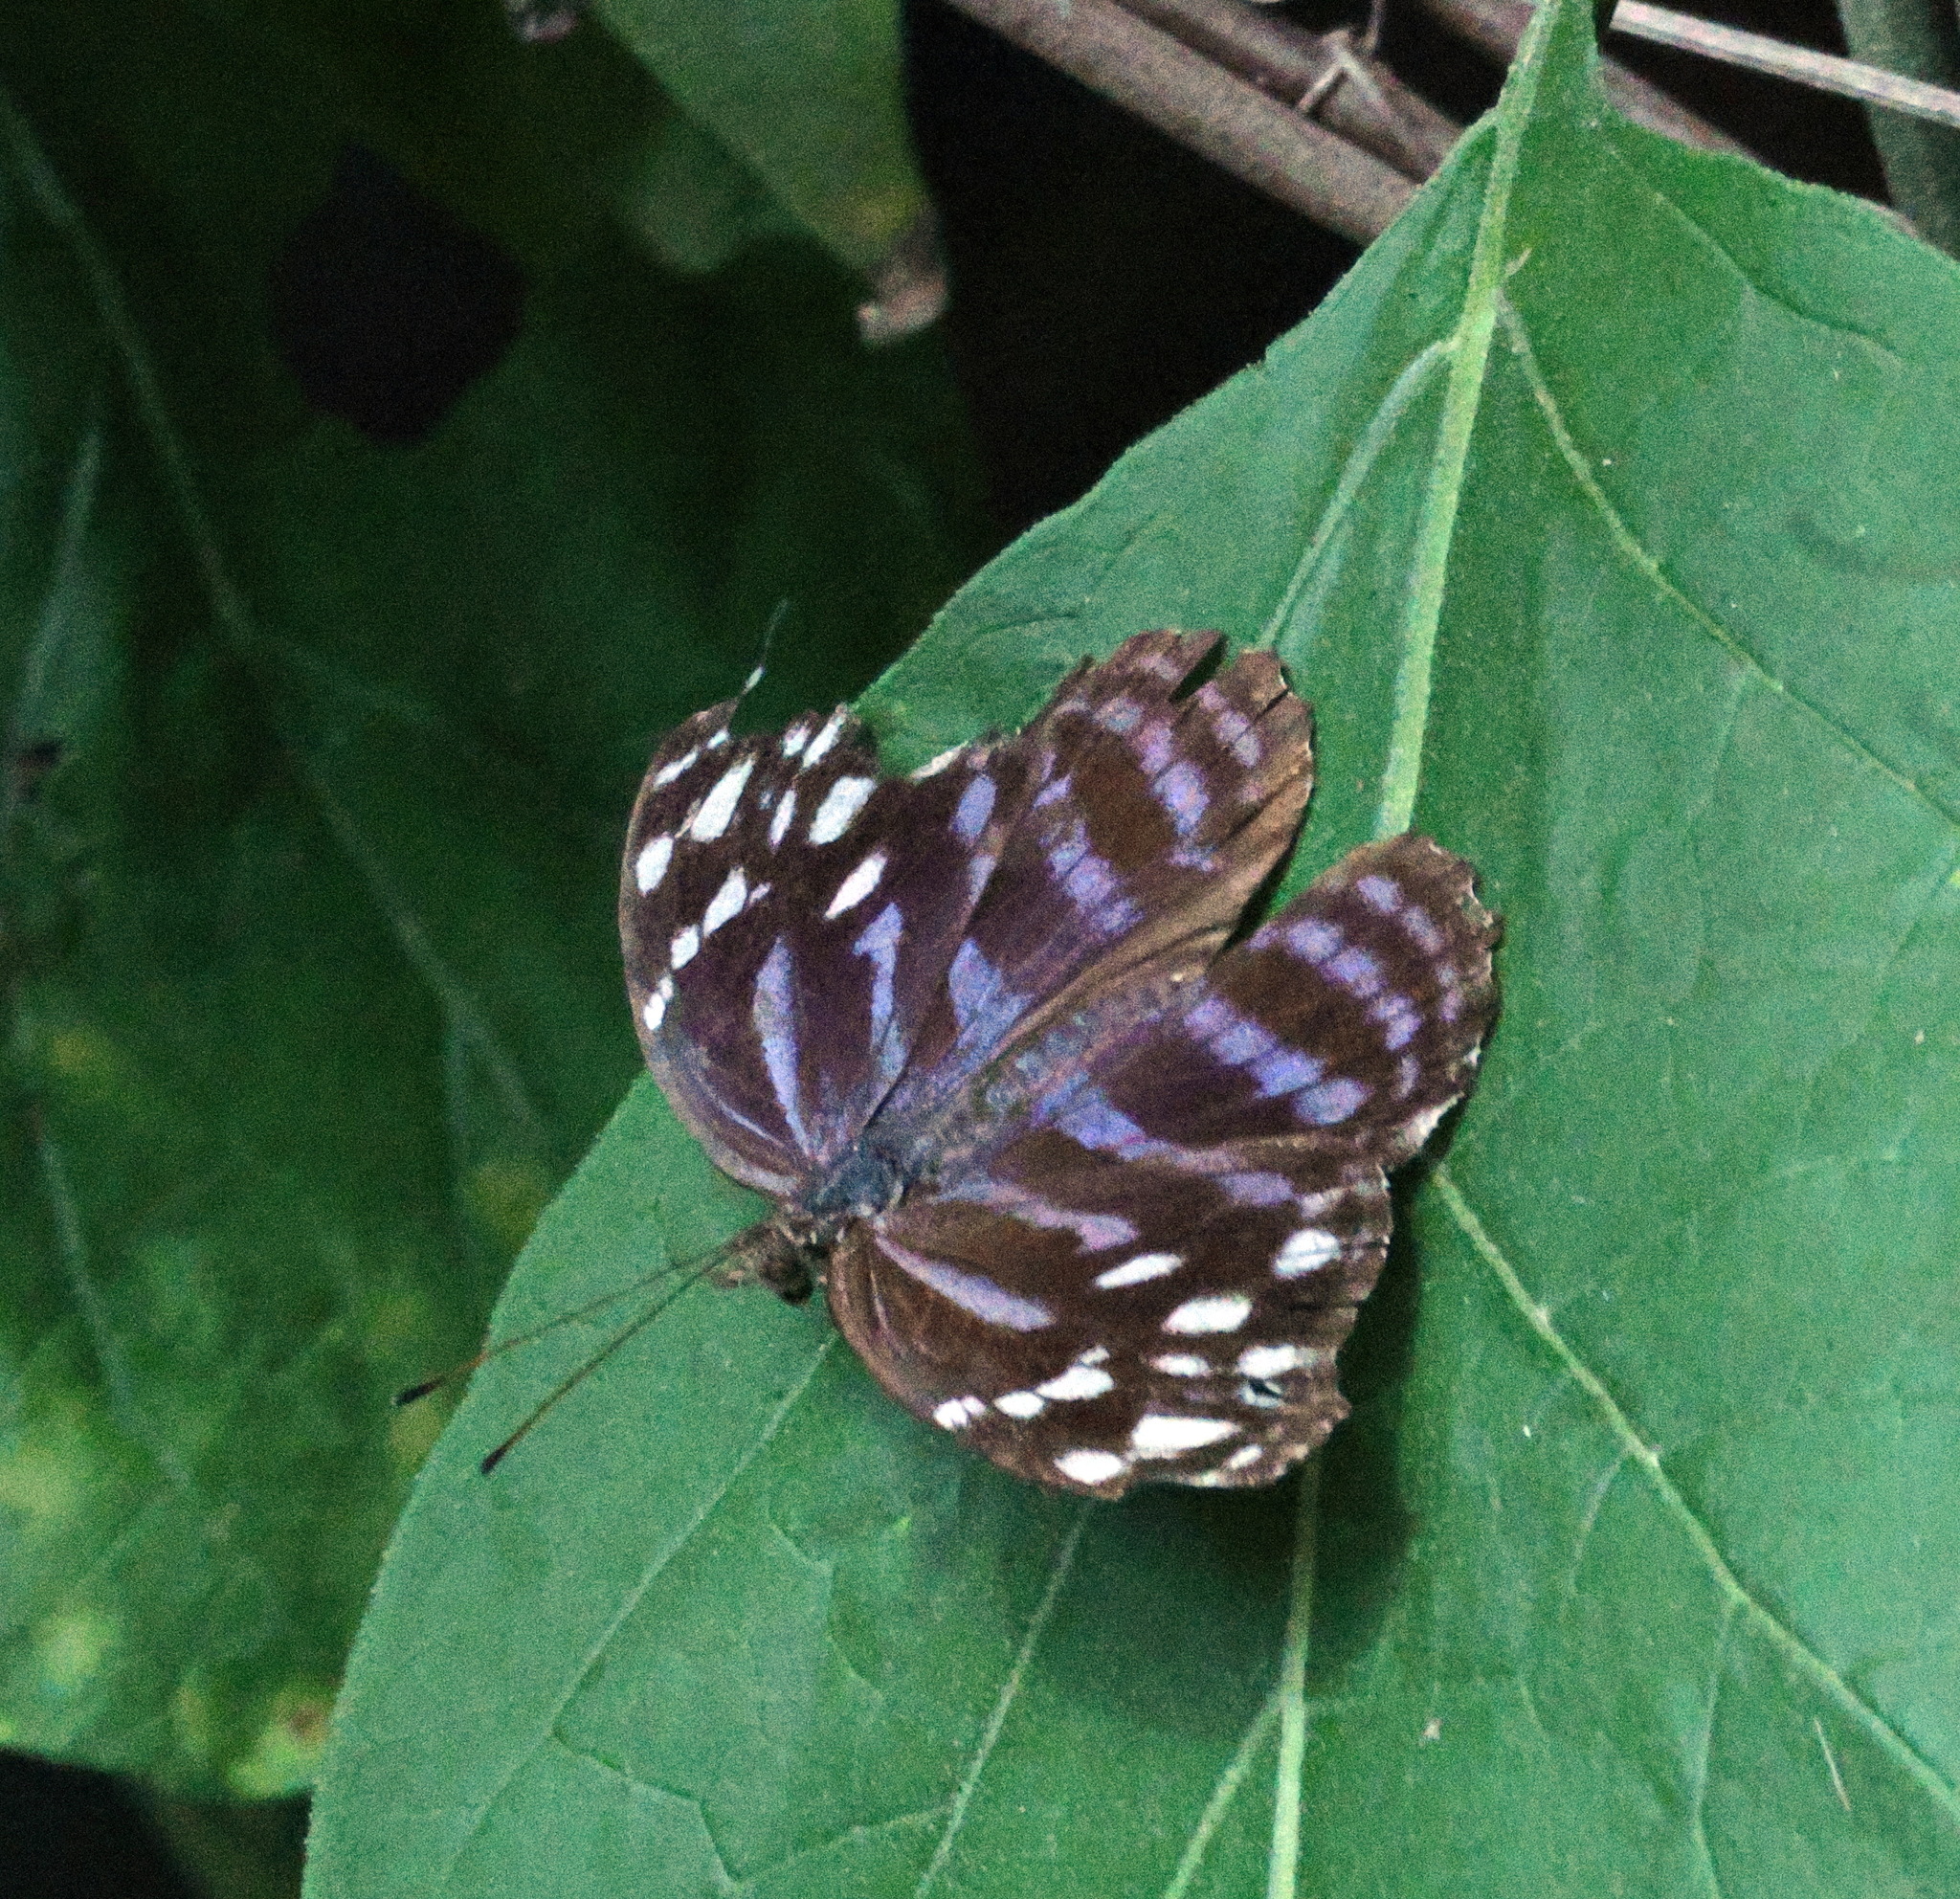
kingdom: Animalia
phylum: Arthropoda
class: Insecta
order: Lepidoptera
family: Nymphalidae
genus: Myscelia
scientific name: Myscelia ethusa
